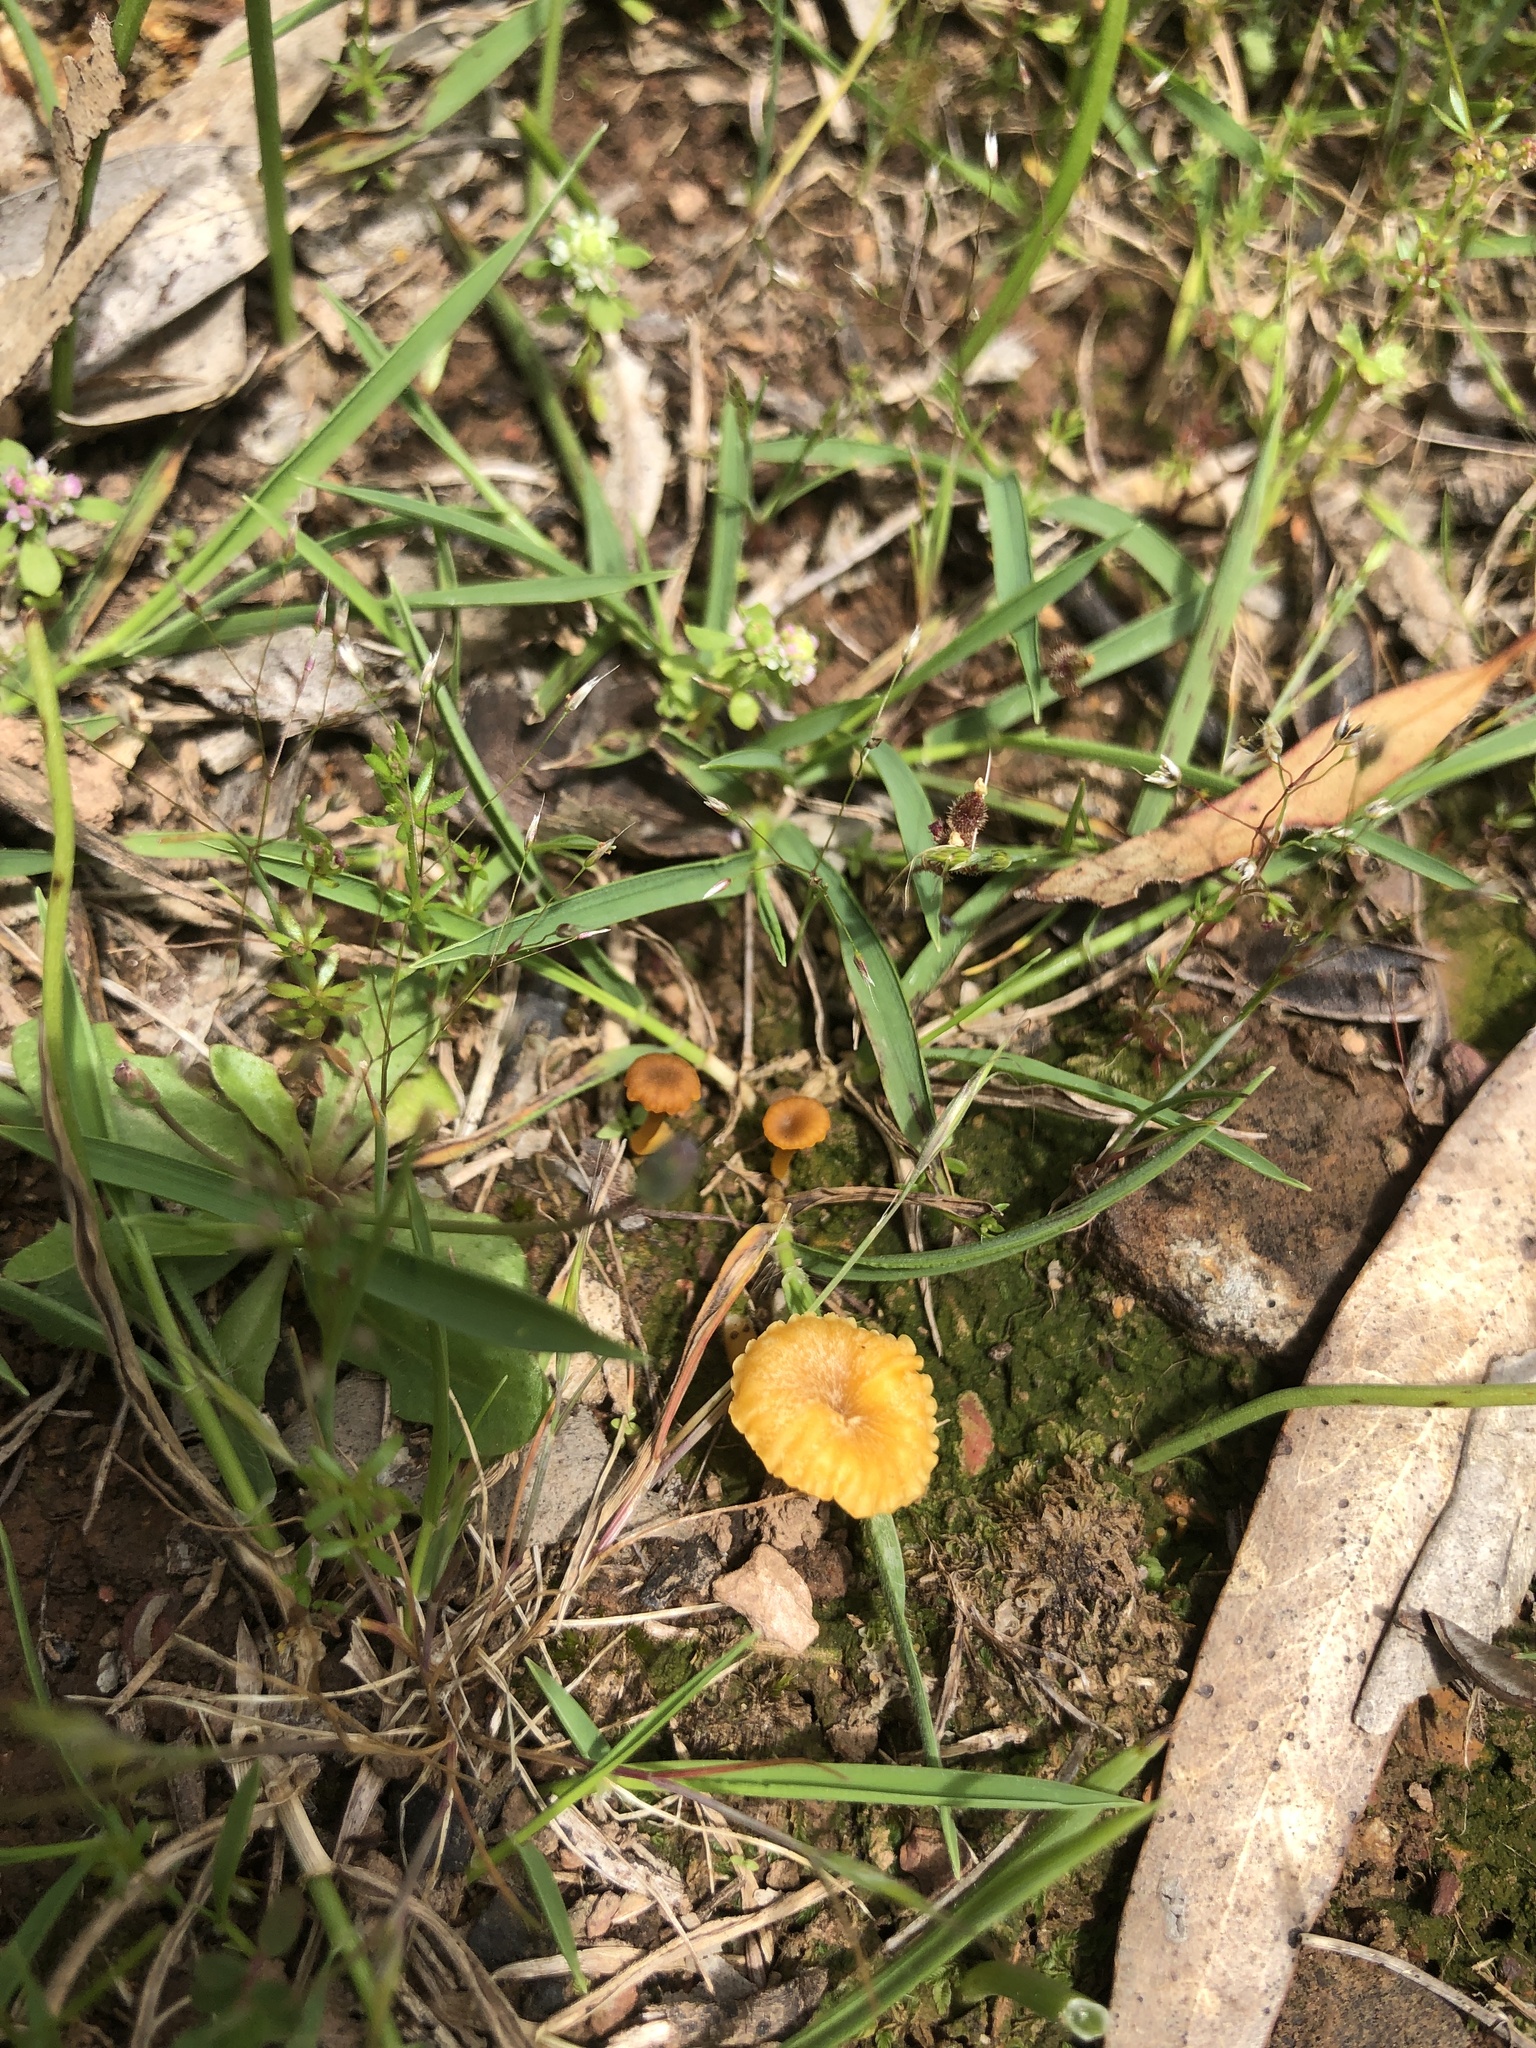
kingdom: Fungi
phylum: Basidiomycota
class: Agaricomycetes
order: Agaricales
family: Hygrophoraceae
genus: Lichenomphalia
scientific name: Lichenomphalia chromacea
